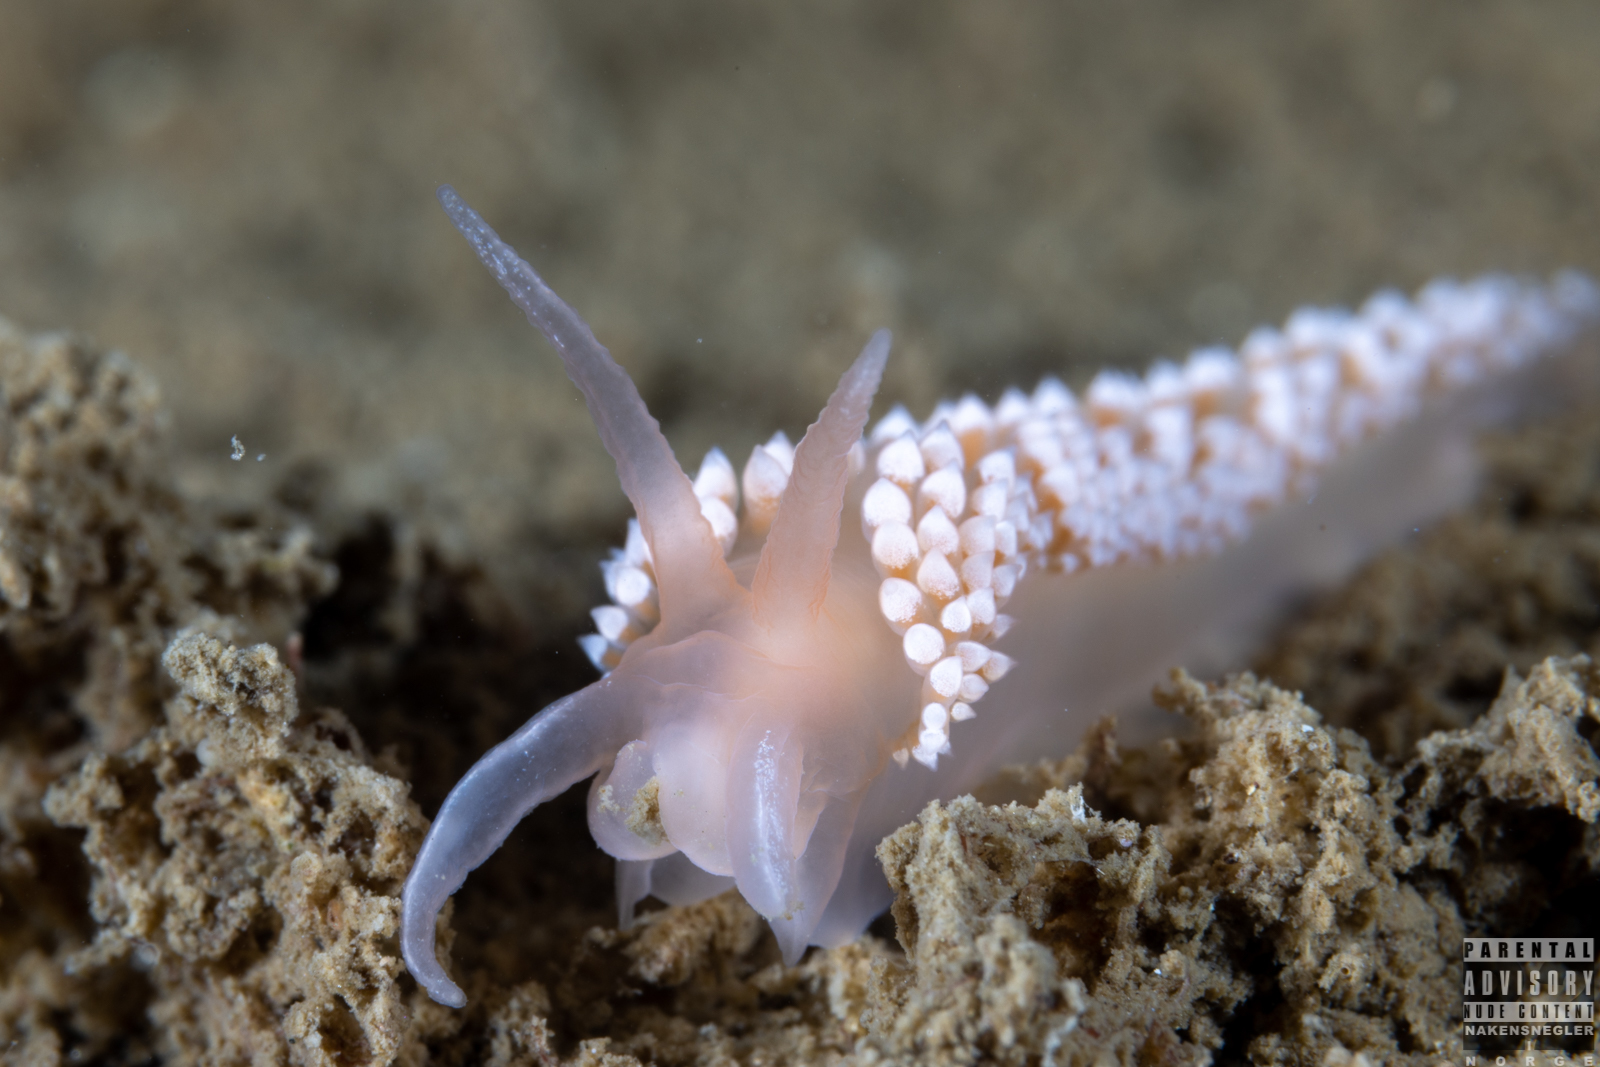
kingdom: Animalia
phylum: Mollusca
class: Gastropoda
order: Nudibranchia
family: Coryphellidae
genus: Coryphella
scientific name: Coryphella verrucosa
